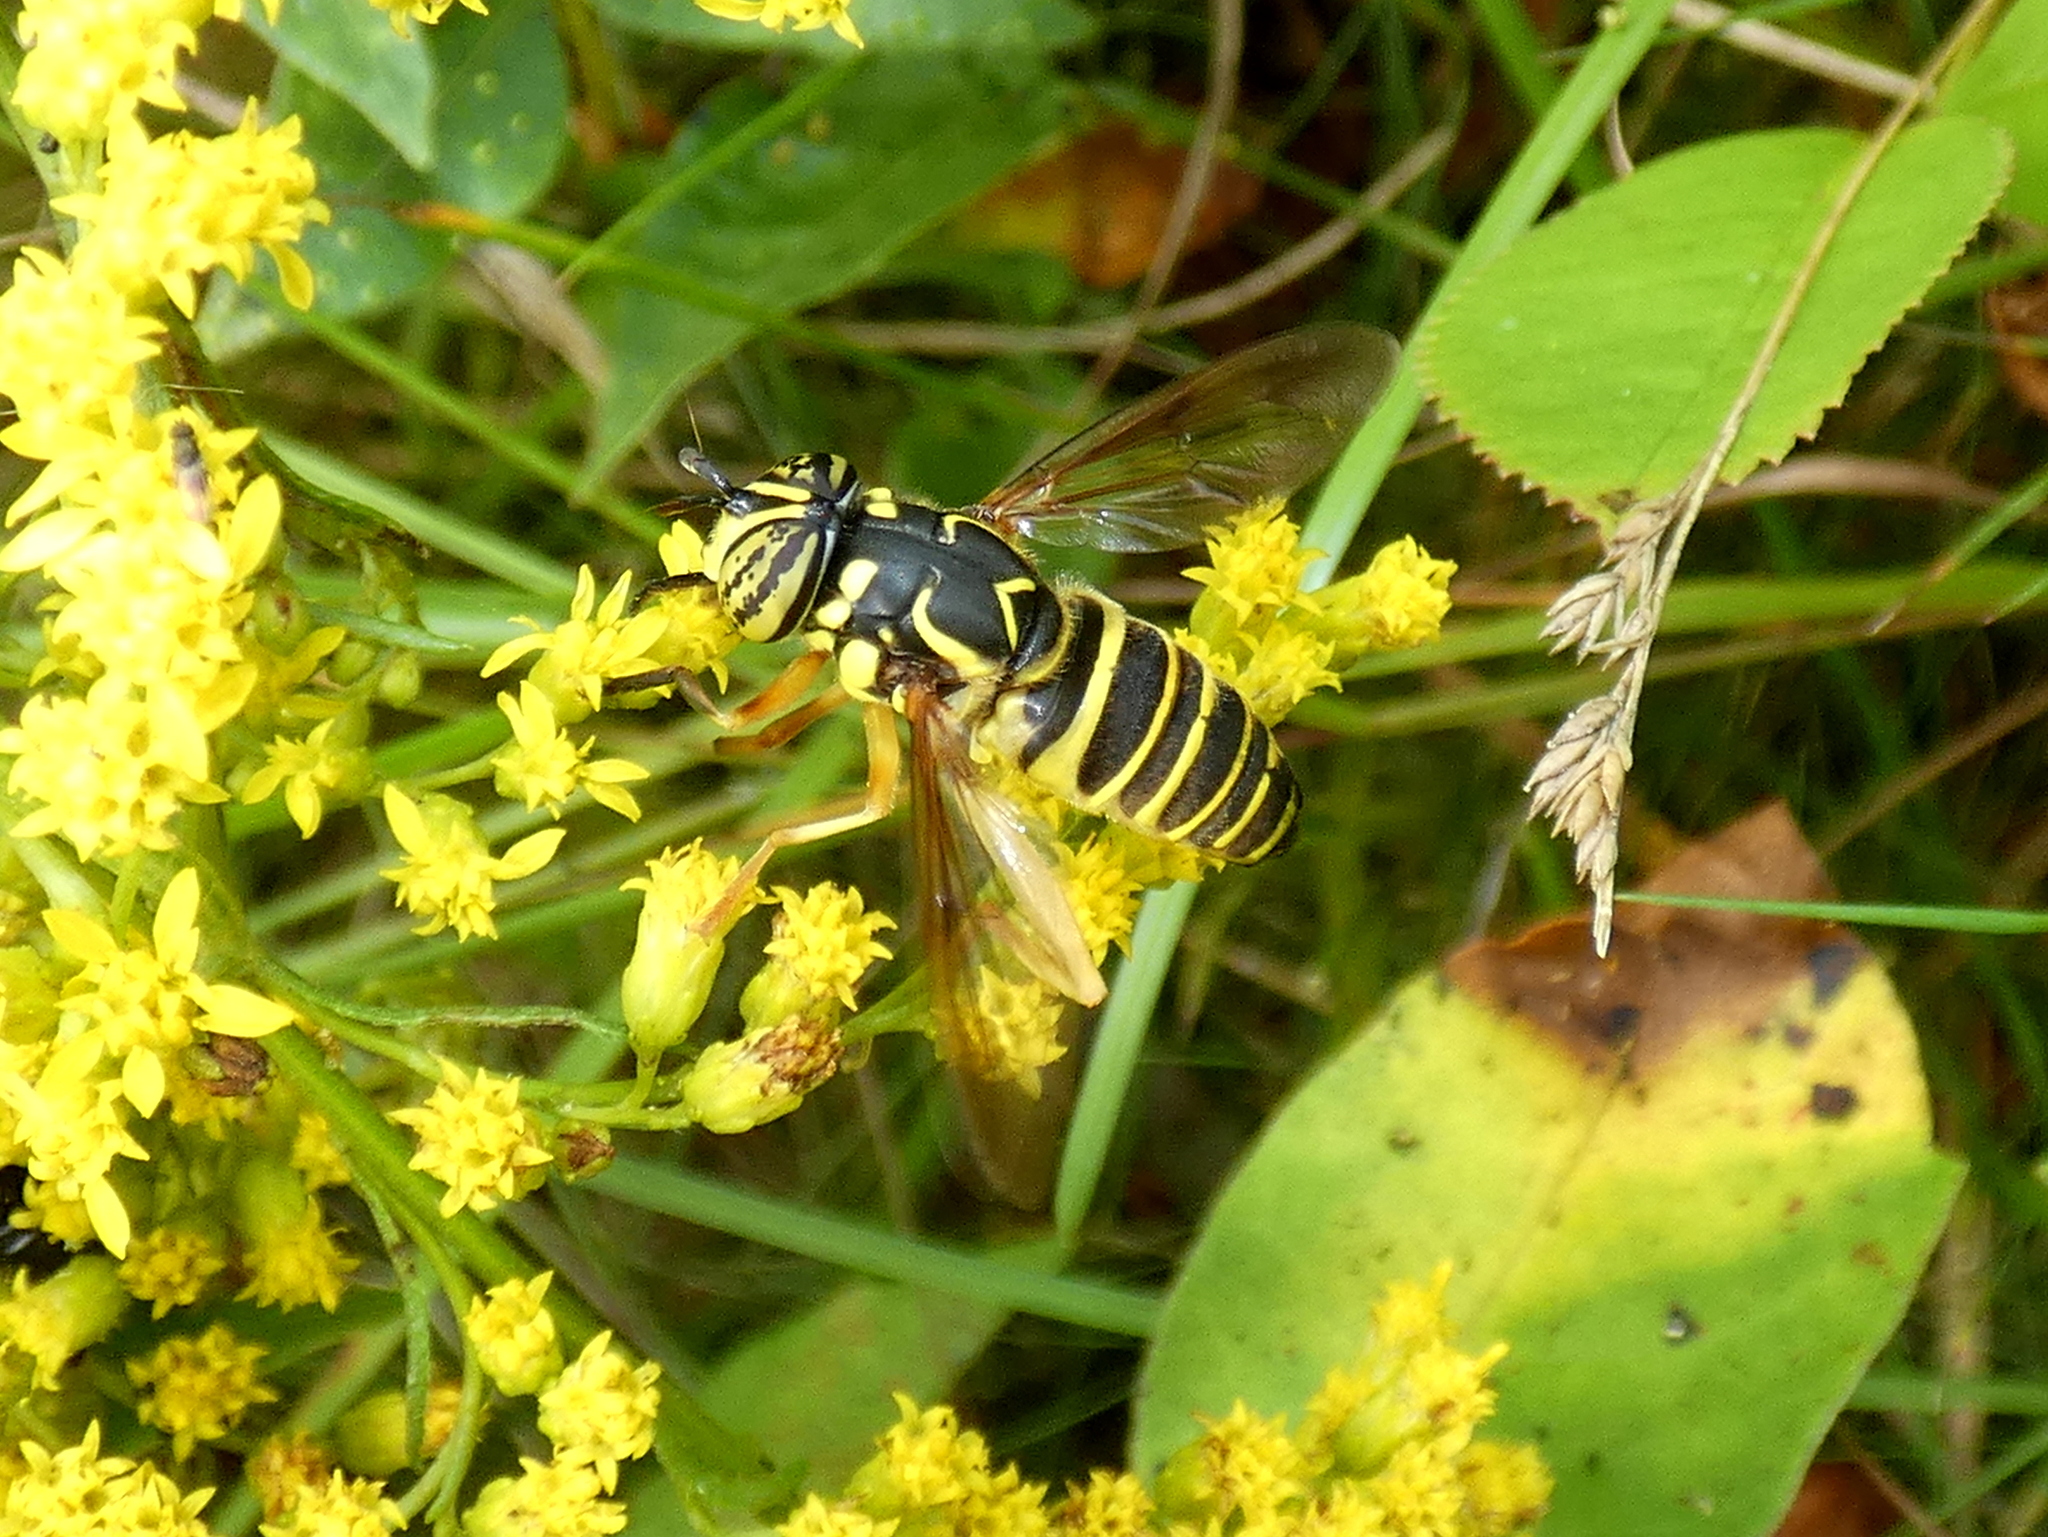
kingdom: Animalia
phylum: Arthropoda
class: Insecta
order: Diptera
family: Syrphidae
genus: Spilomyia
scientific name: Spilomyia longicornis
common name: Eastern hornet fly
